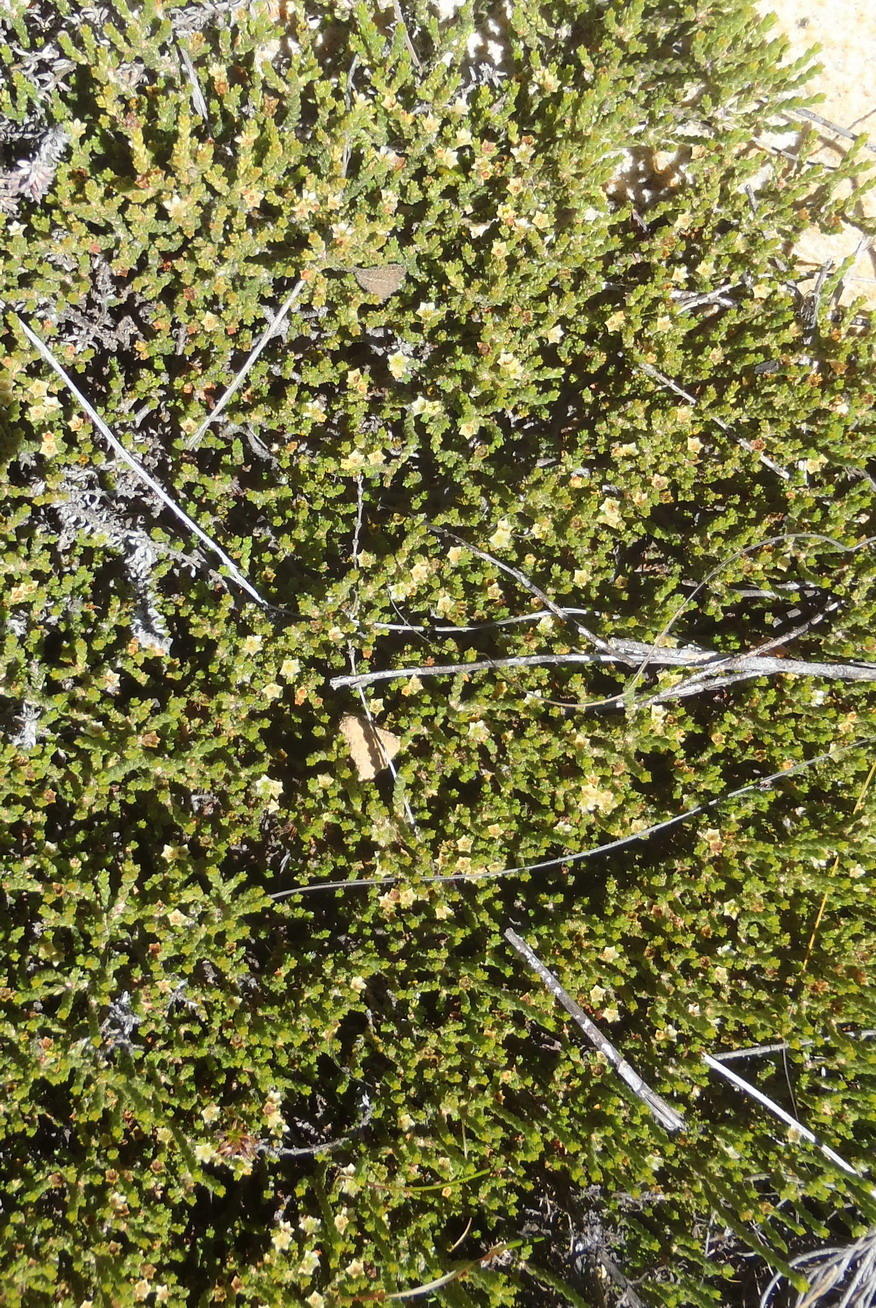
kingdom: Plantae
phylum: Tracheophyta
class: Magnoliopsida
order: Sapindales
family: Rutaceae
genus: Diosma
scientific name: Diosma apetala
